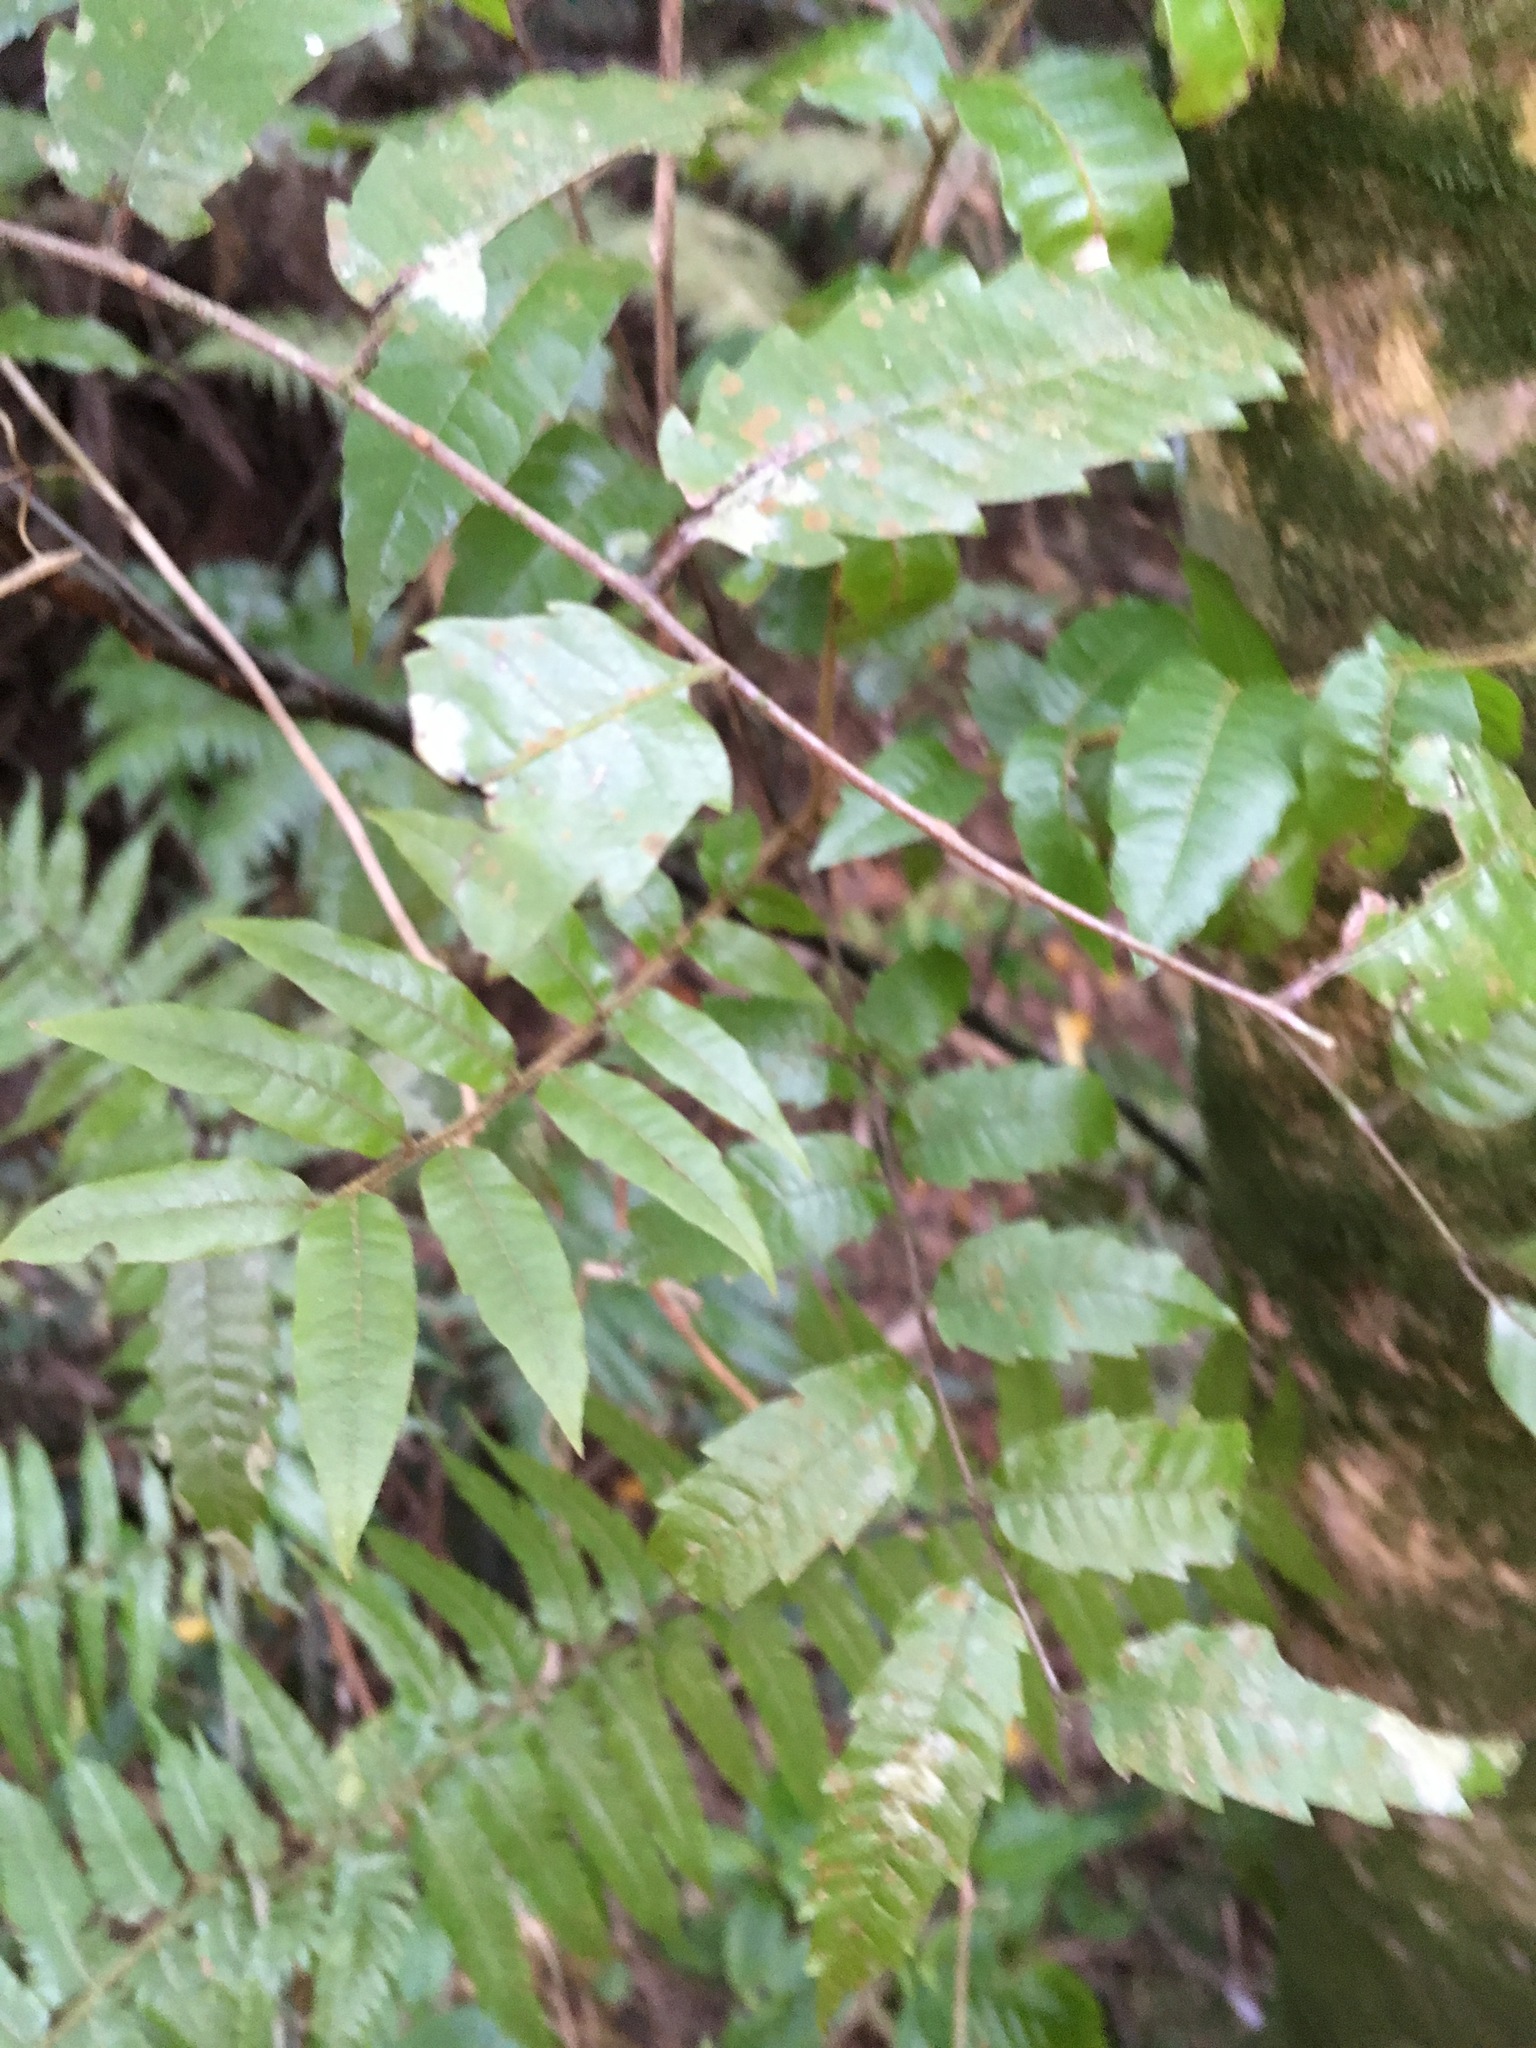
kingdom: Plantae
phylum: Tracheophyta
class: Magnoliopsida
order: Sapindales
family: Sapindaceae
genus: Alectryon
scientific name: Alectryon excelsus
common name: Three kings titoki
